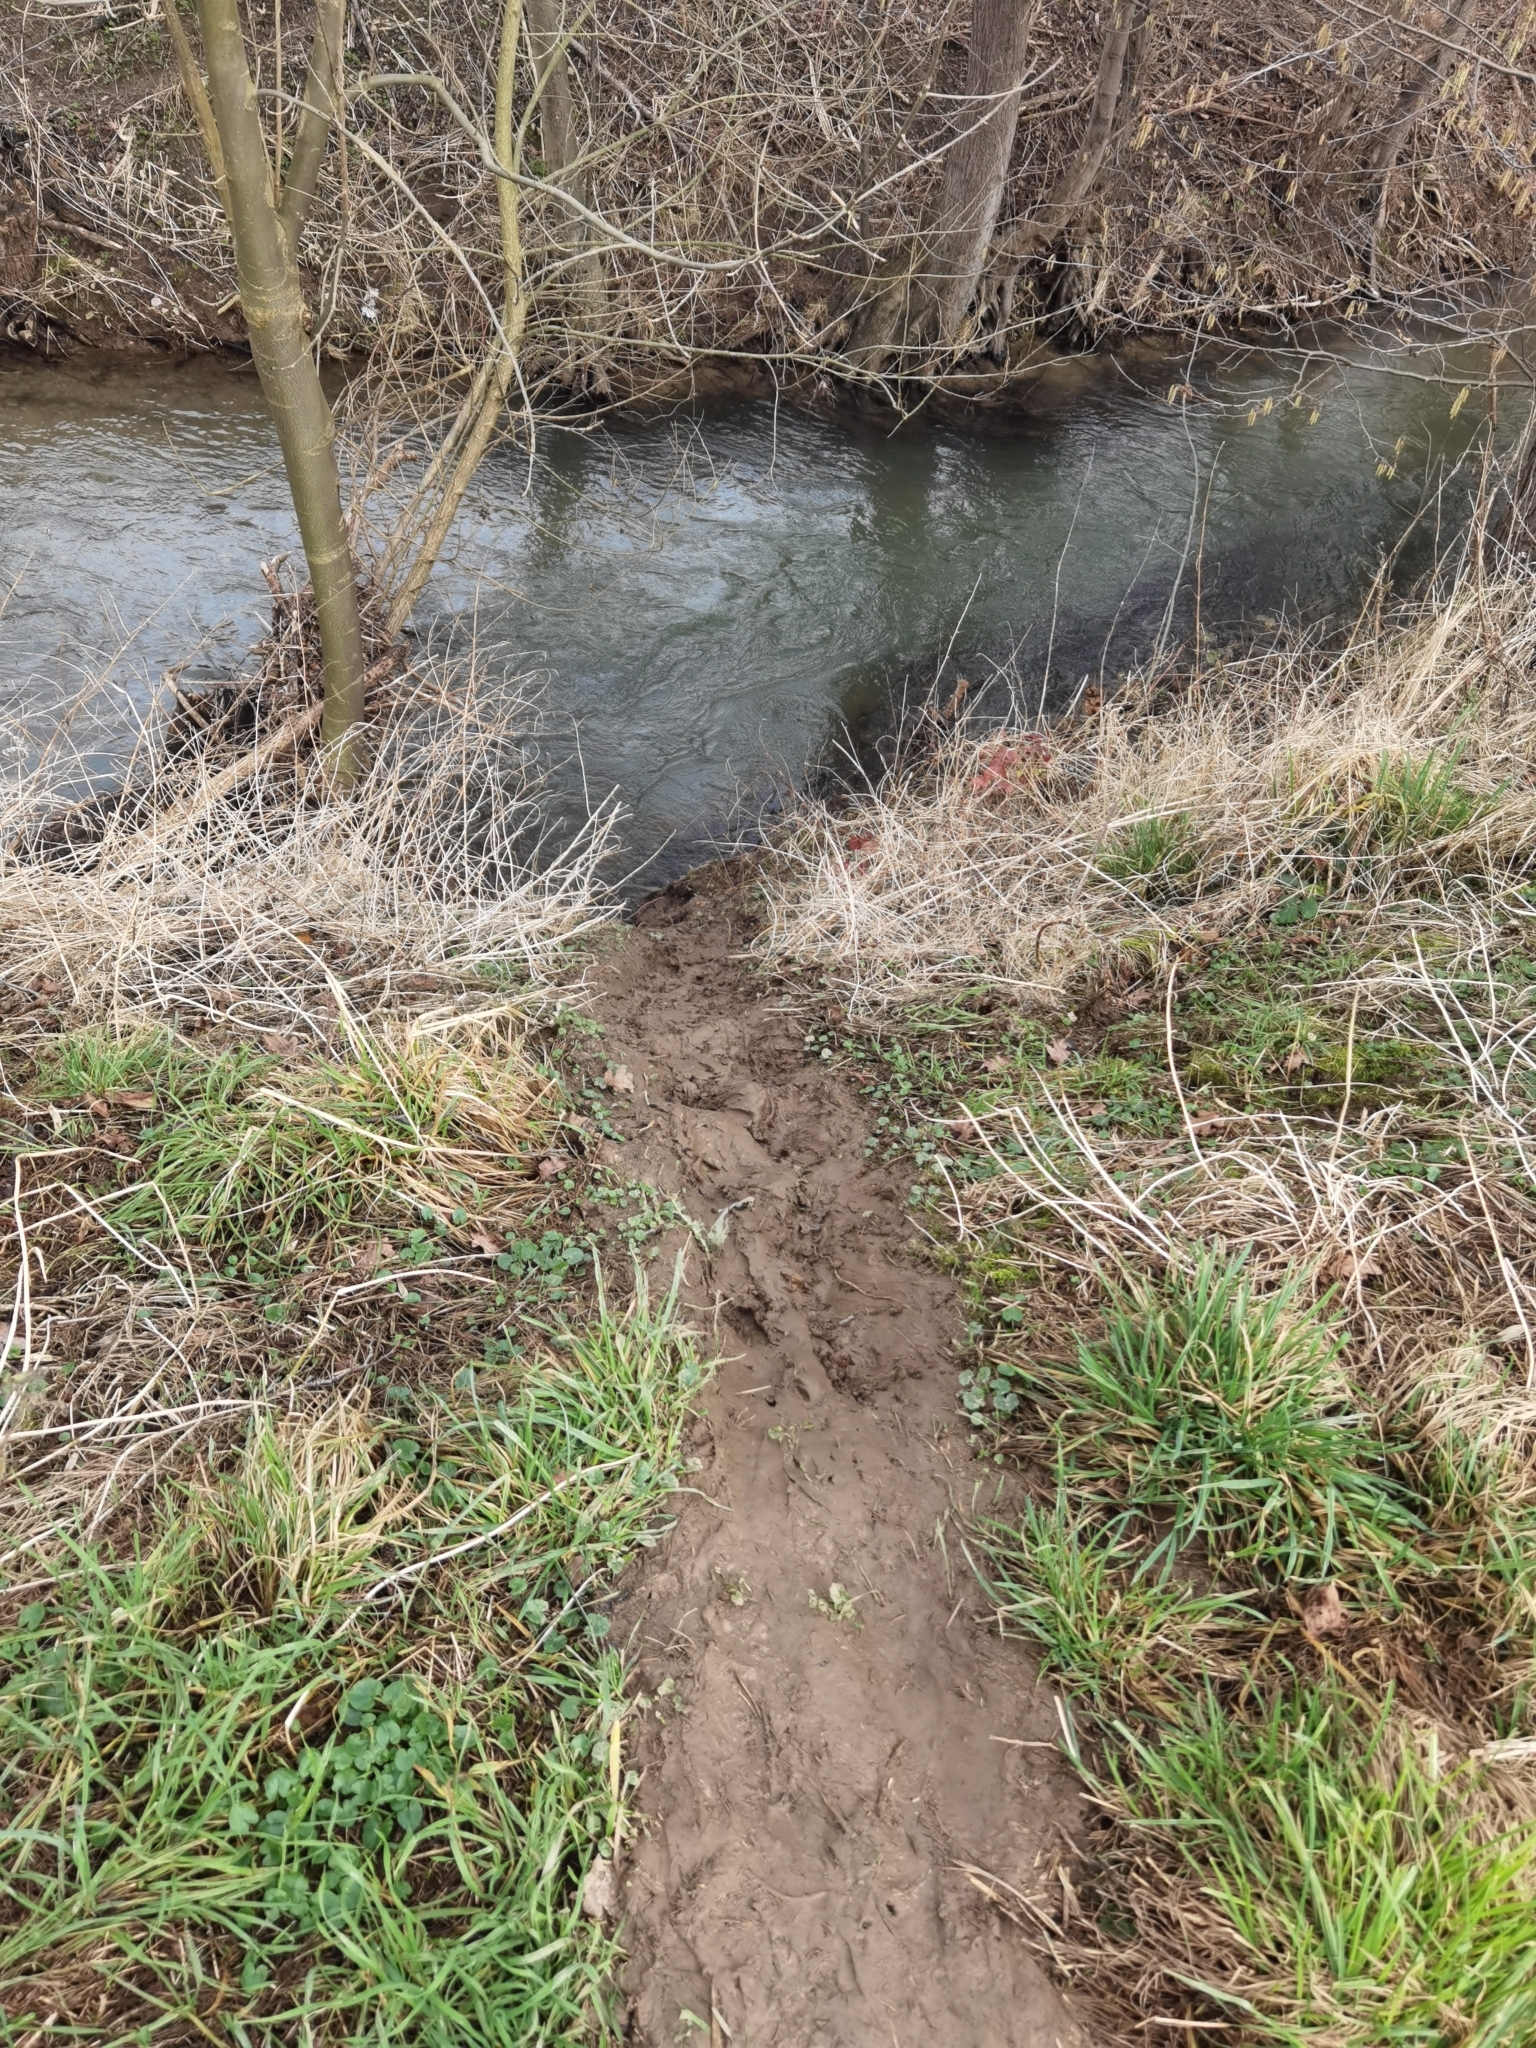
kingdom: Animalia
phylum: Chordata
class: Mammalia
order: Rodentia
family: Castoridae
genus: Castor
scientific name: Castor fiber
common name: Eurasian beaver
